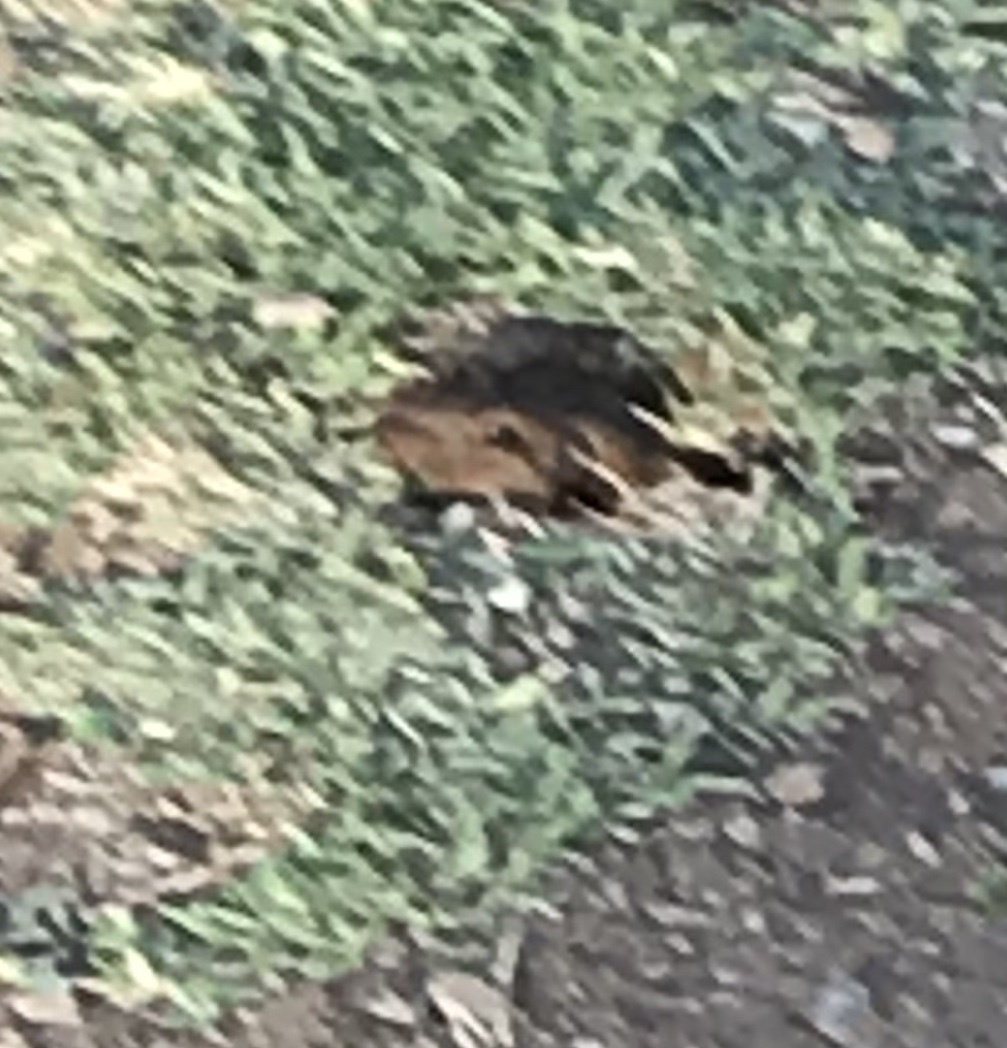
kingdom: Animalia
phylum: Chordata
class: Mammalia
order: Rodentia
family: Geomyidae
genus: Thomomys
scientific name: Thomomys bottae
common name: Botta's pocket gopher
